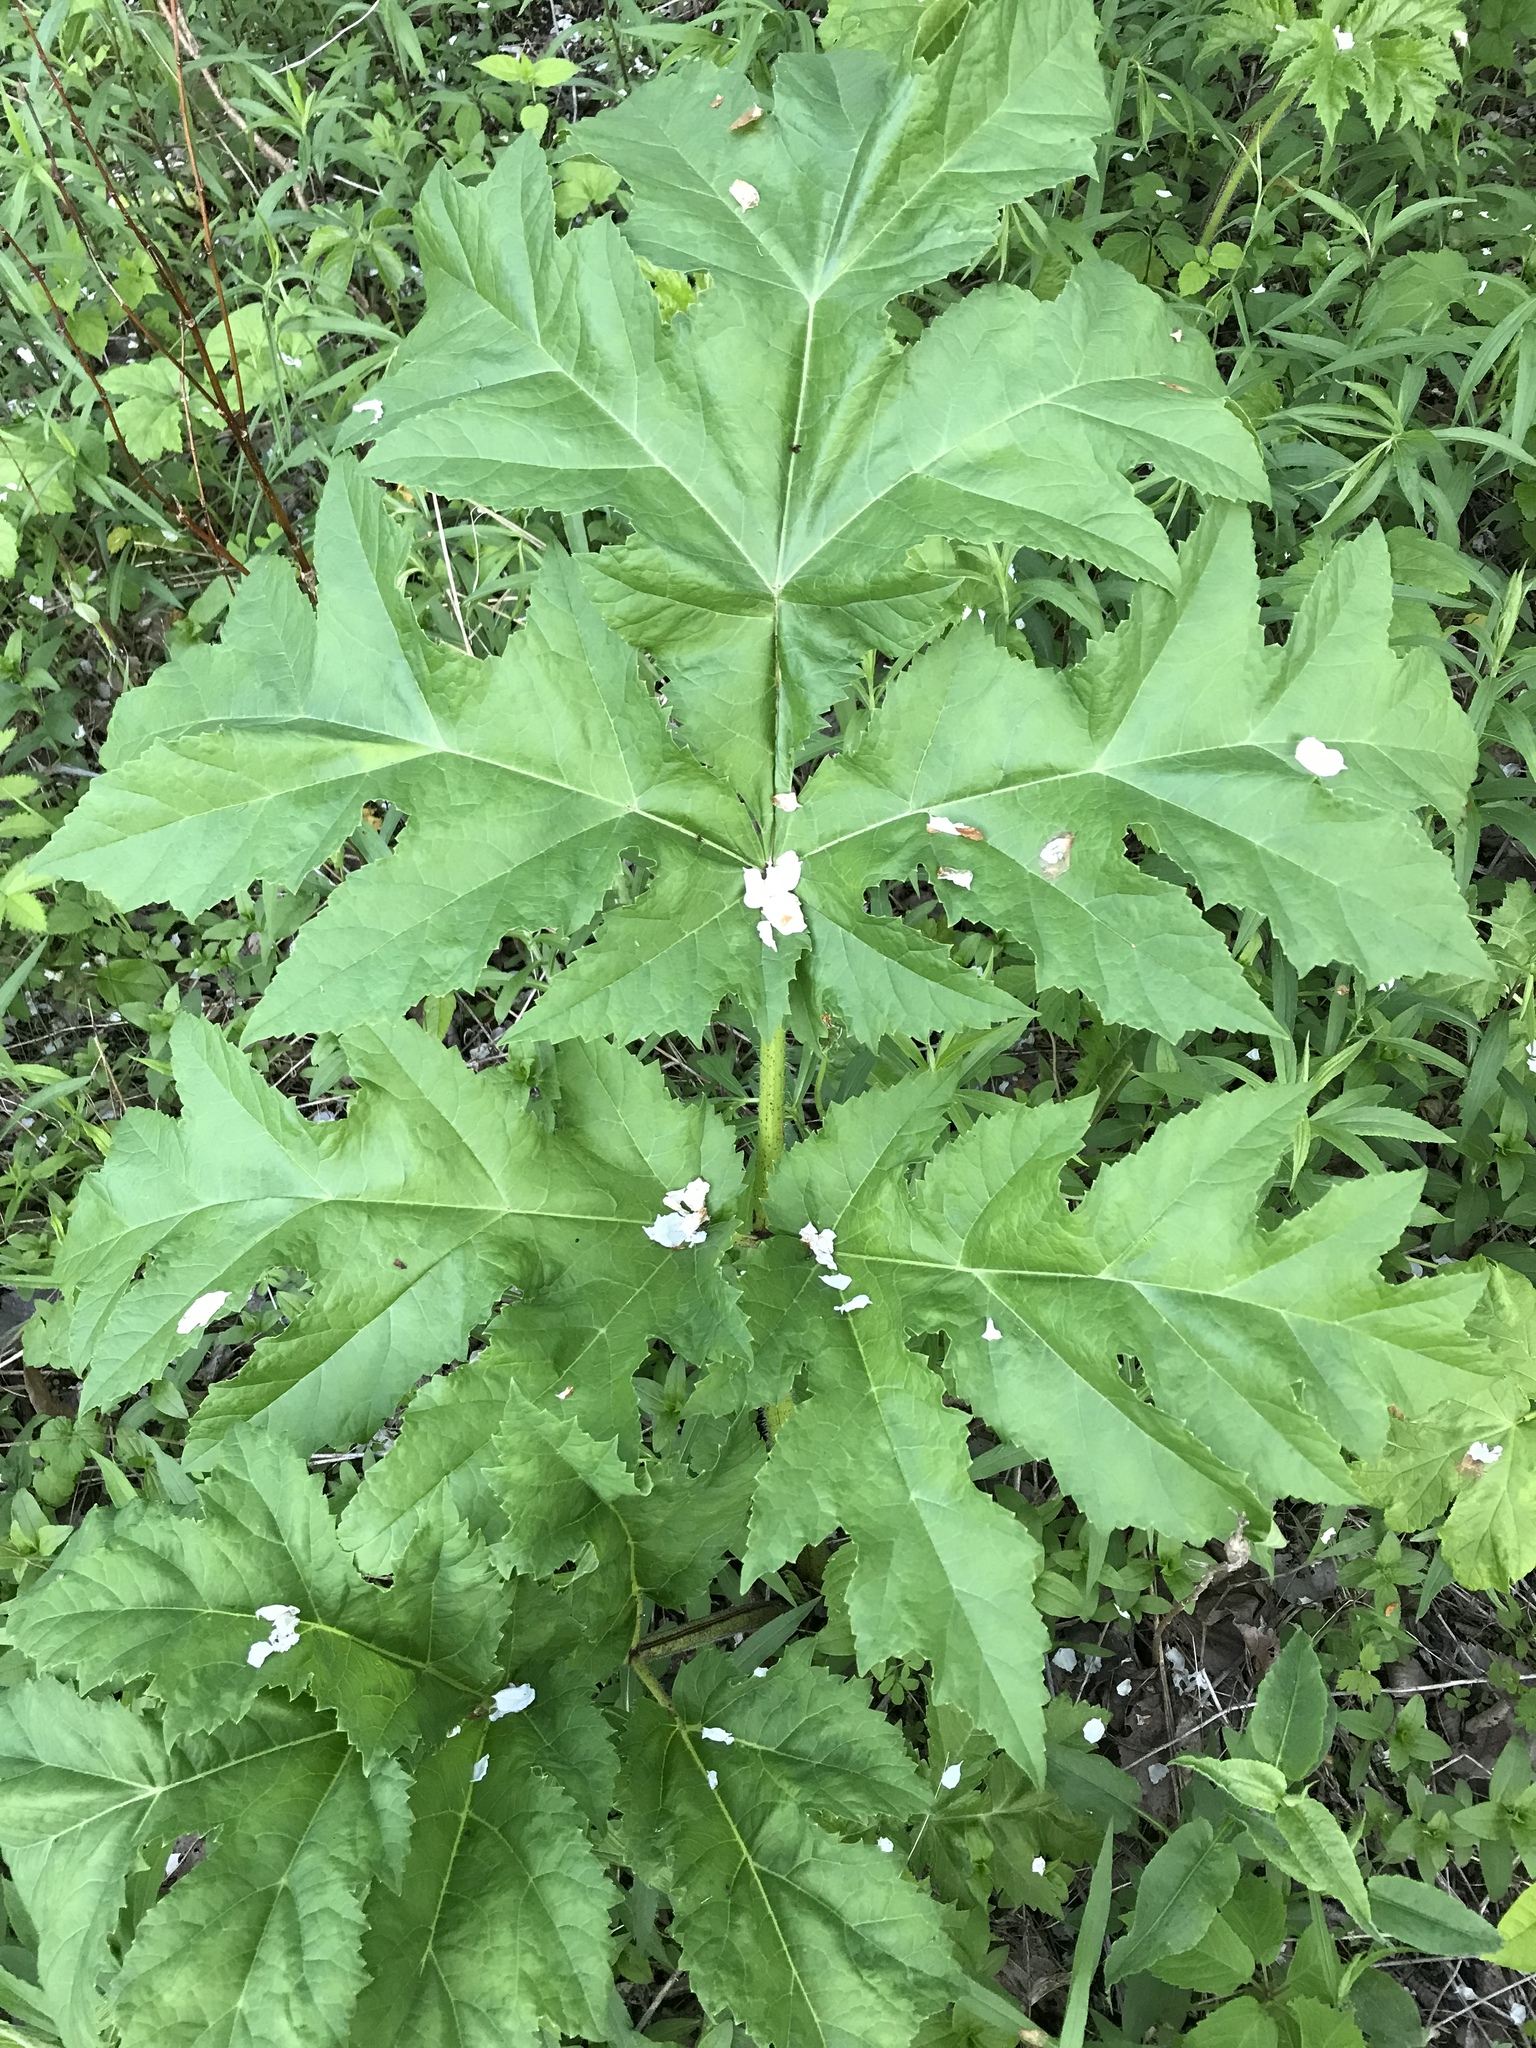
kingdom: Plantae
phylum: Tracheophyta
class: Magnoliopsida
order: Apiales
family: Apiaceae
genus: Heracleum
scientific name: Heracleum mantegazzianum
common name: Giant hogweed
